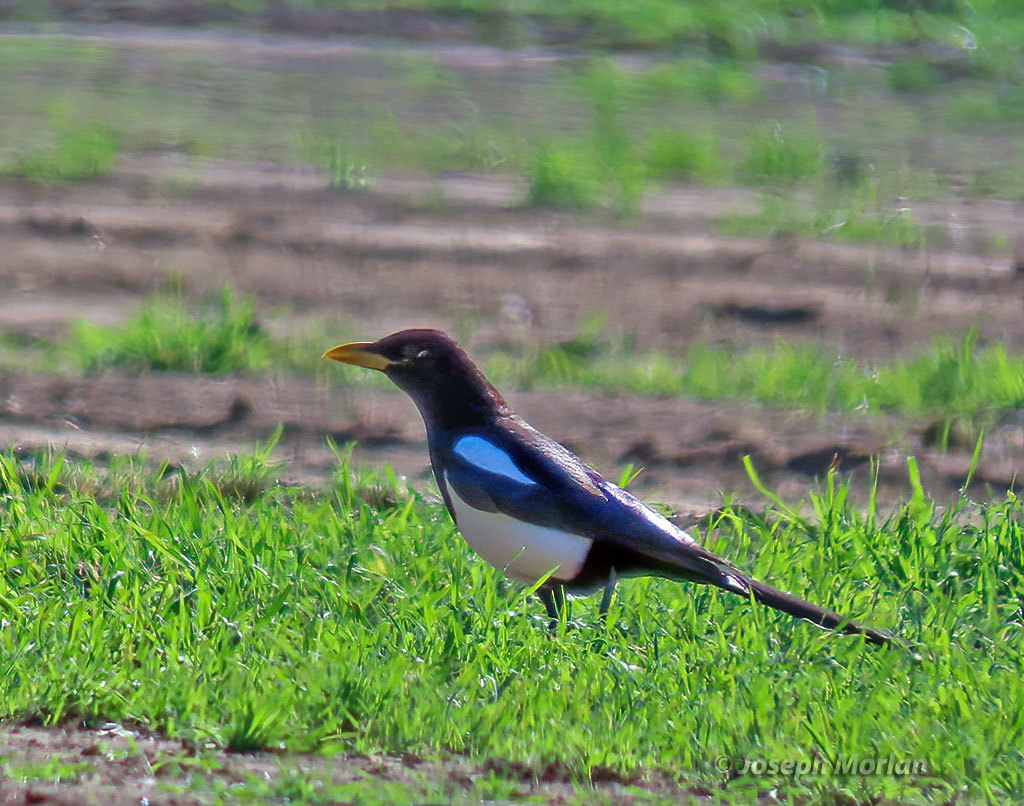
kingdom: Animalia
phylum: Chordata
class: Aves
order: Passeriformes
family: Corvidae
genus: Pica
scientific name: Pica nuttalli
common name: Yellow-billed magpie
